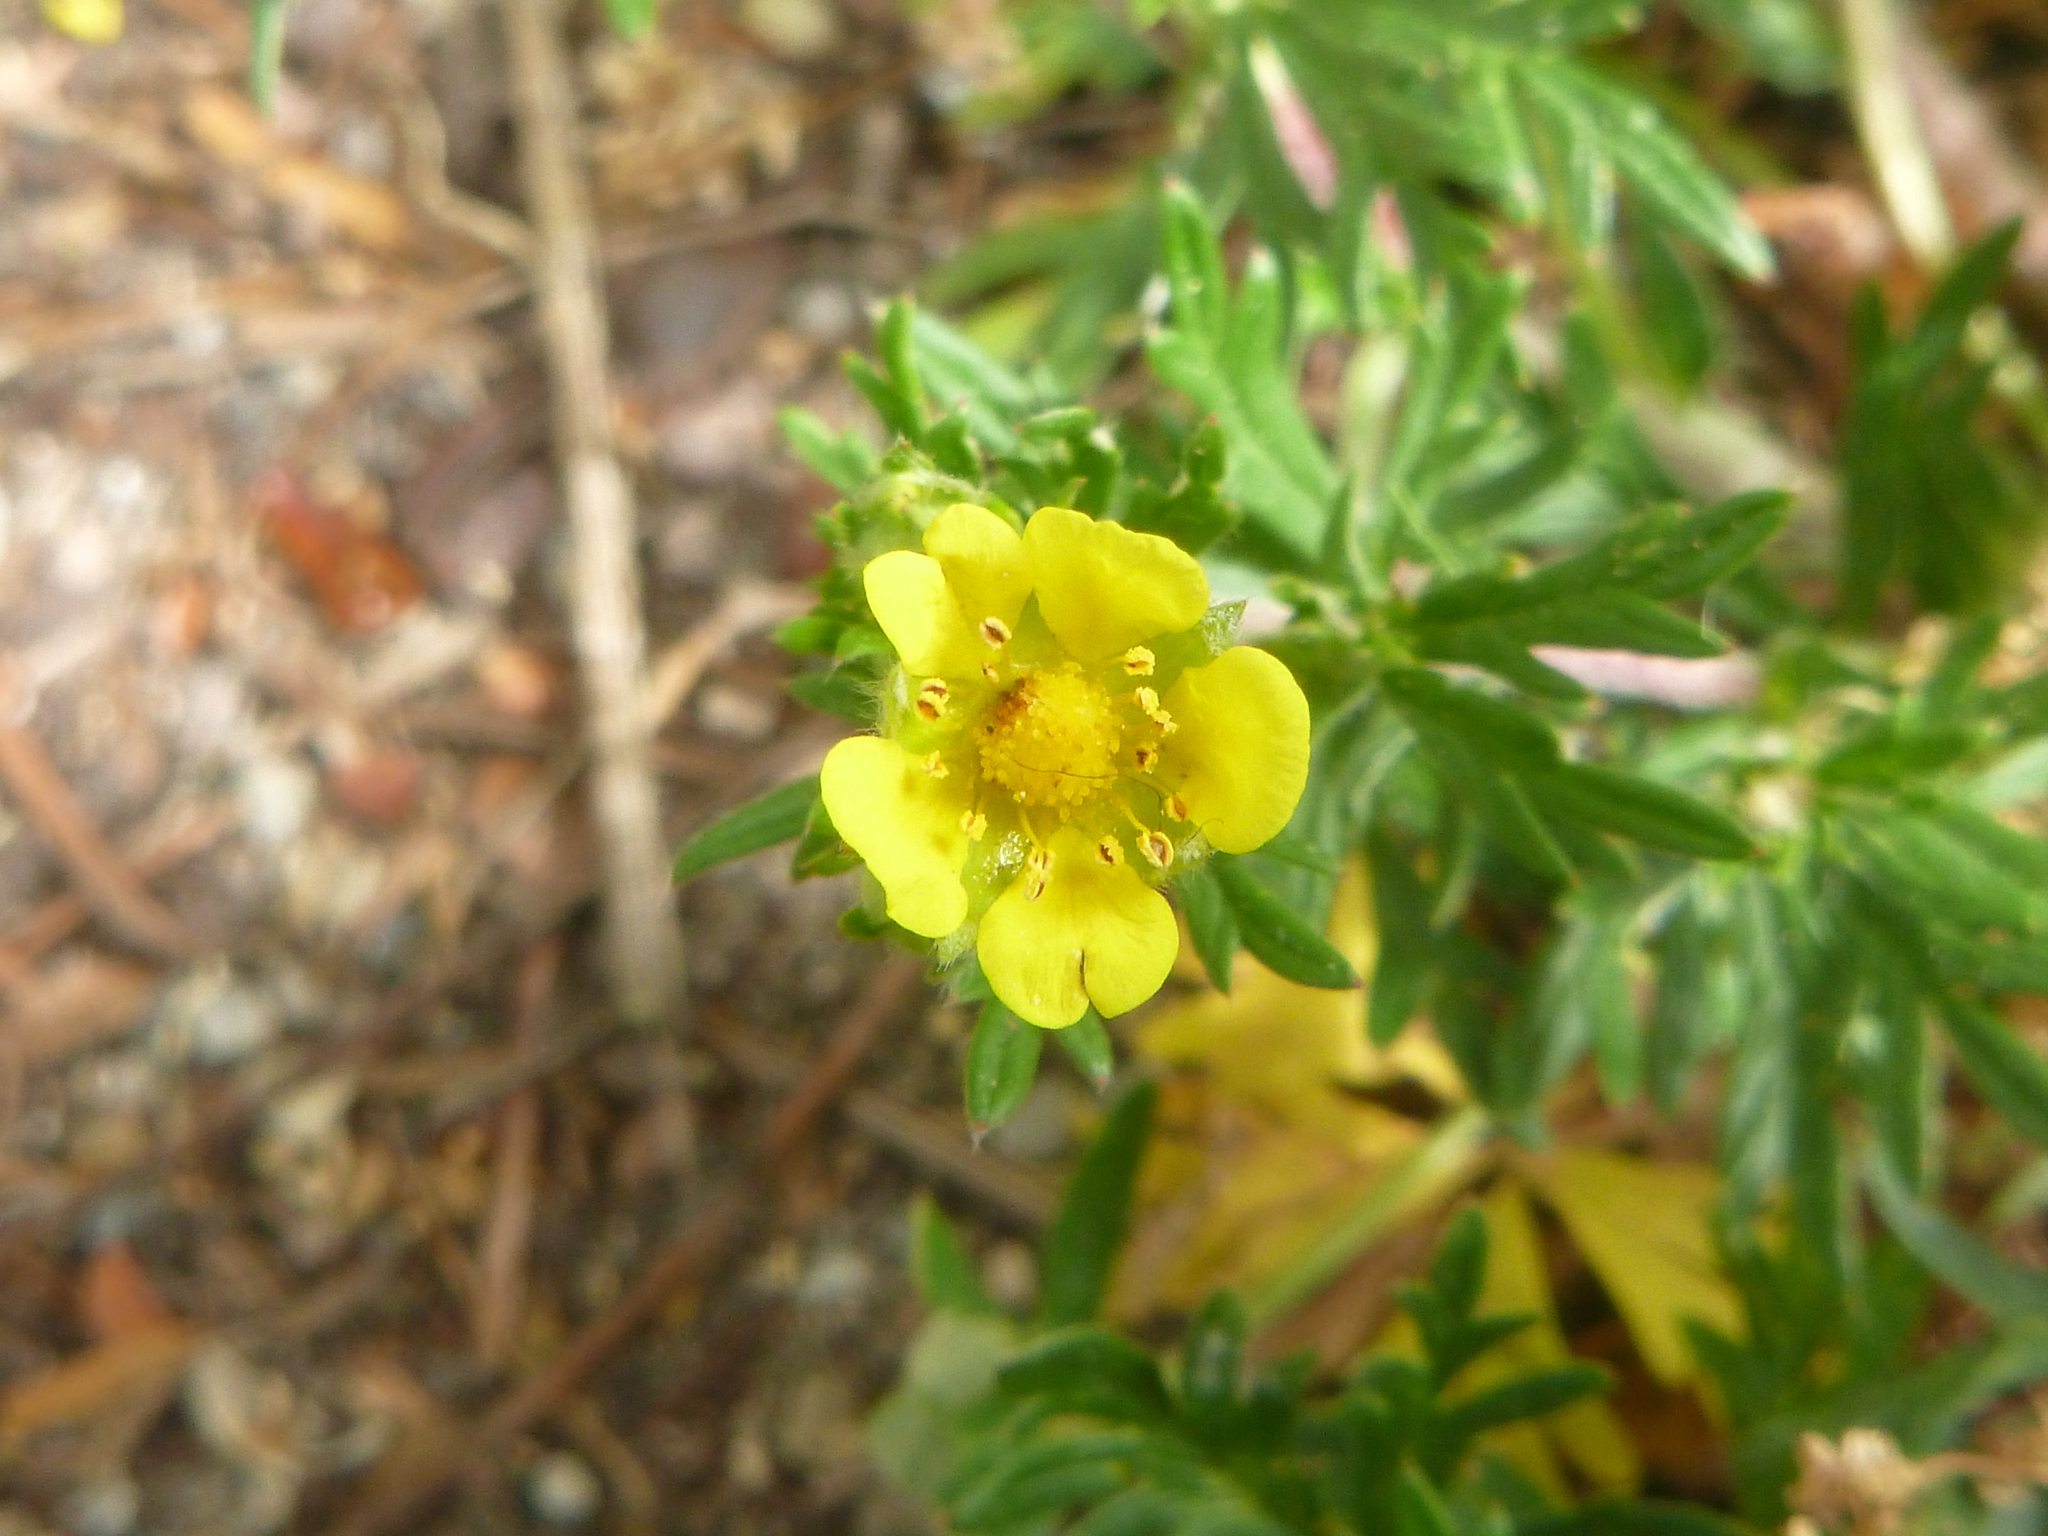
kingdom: Plantae
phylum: Tracheophyta
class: Magnoliopsida
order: Rosales
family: Rosaceae
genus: Potentilla
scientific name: Potentilla argentea
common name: Hoary cinquefoil
